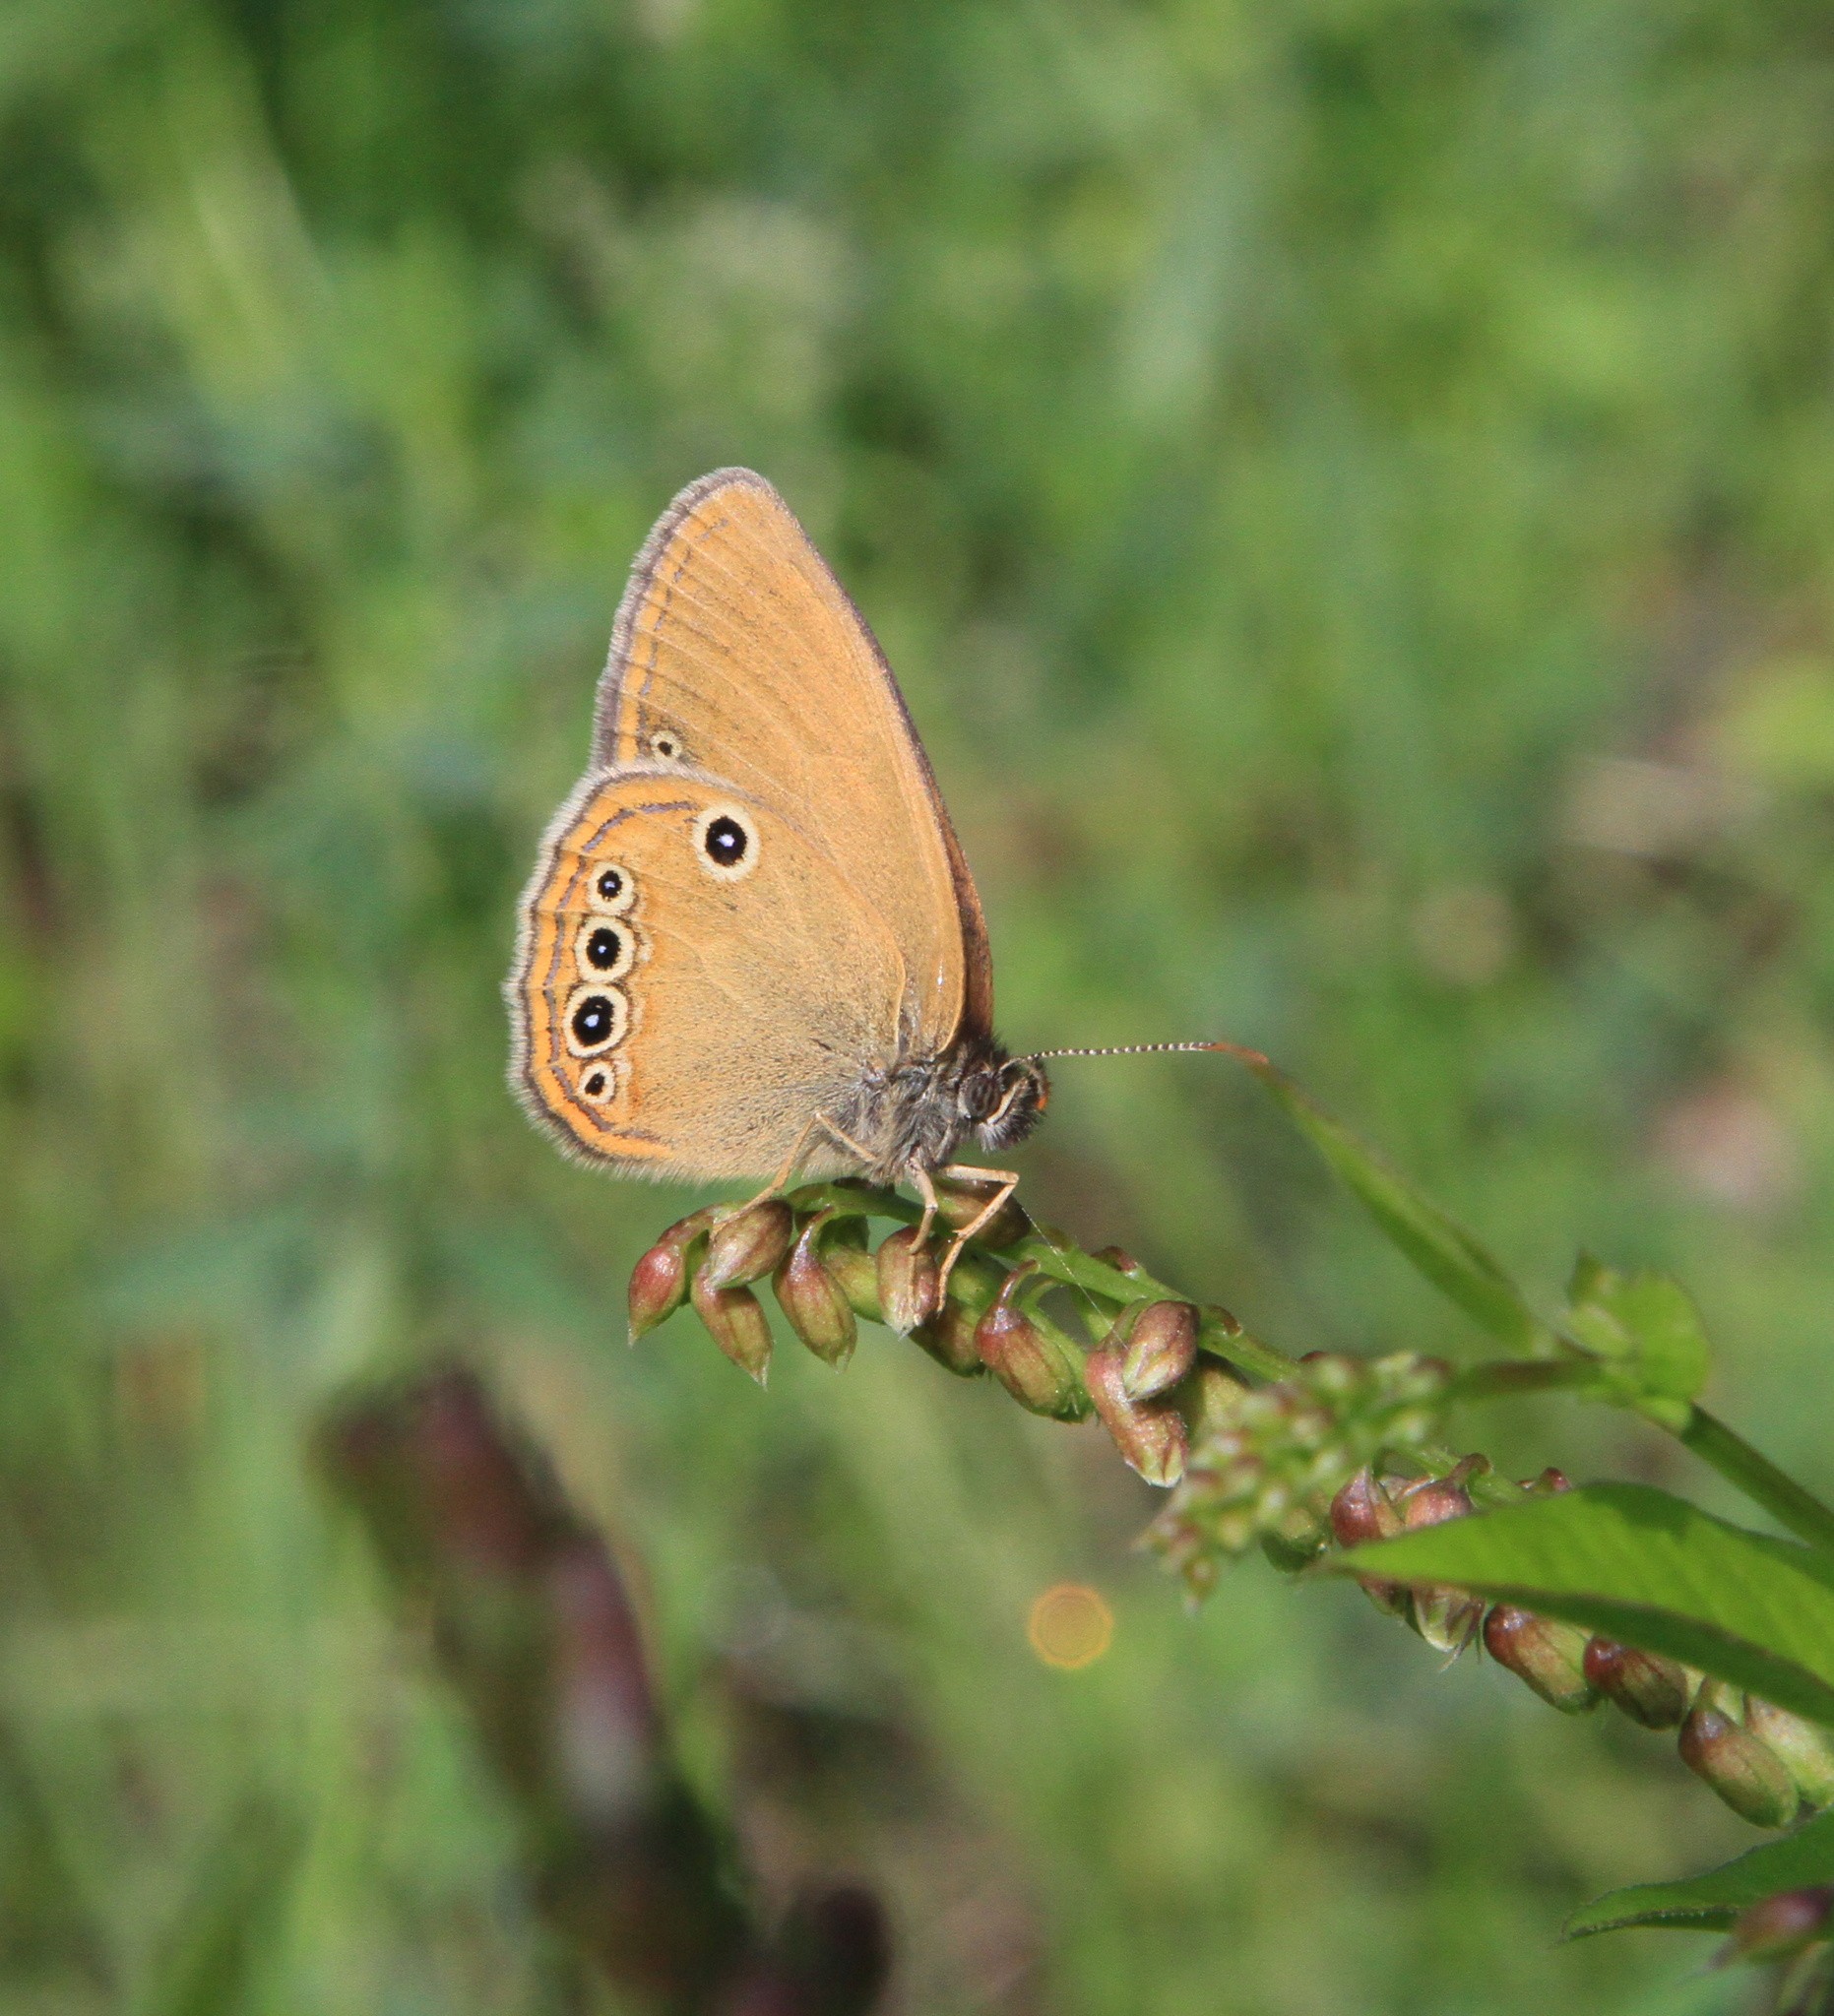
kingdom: Animalia
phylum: Arthropoda
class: Insecta
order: Lepidoptera
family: Nymphalidae
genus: Coenonympha
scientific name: Coenonympha oedippus
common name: False ringlet
